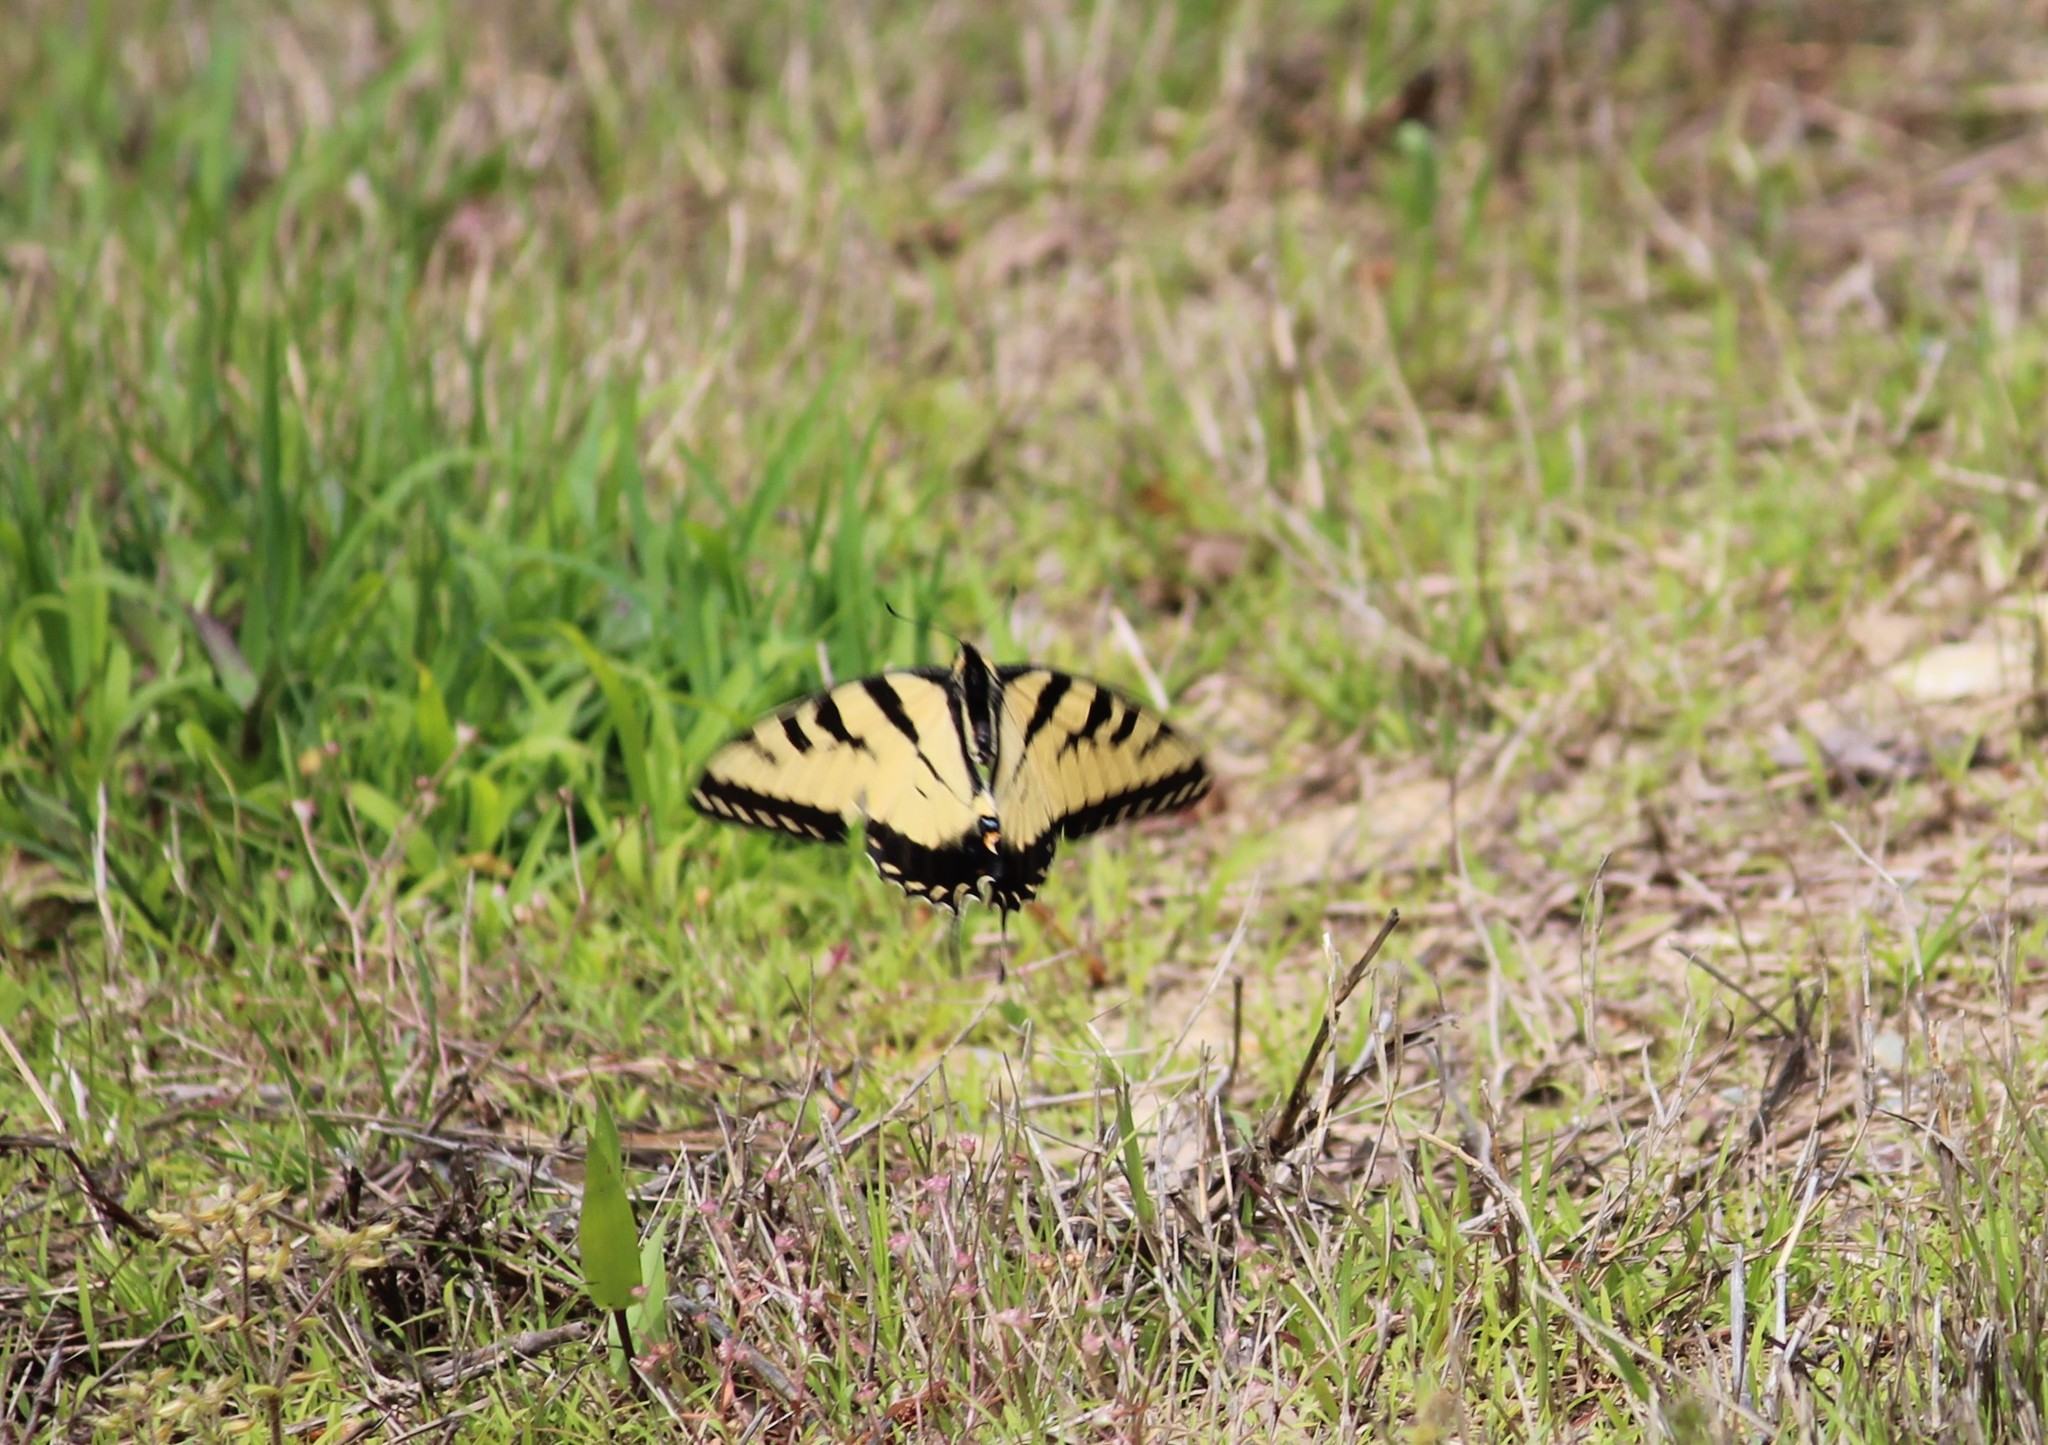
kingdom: Animalia
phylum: Arthropoda
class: Insecta
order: Lepidoptera
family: Papilionidae
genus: Papilio
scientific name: Papilio glaucus
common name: Tiger swallowtail
